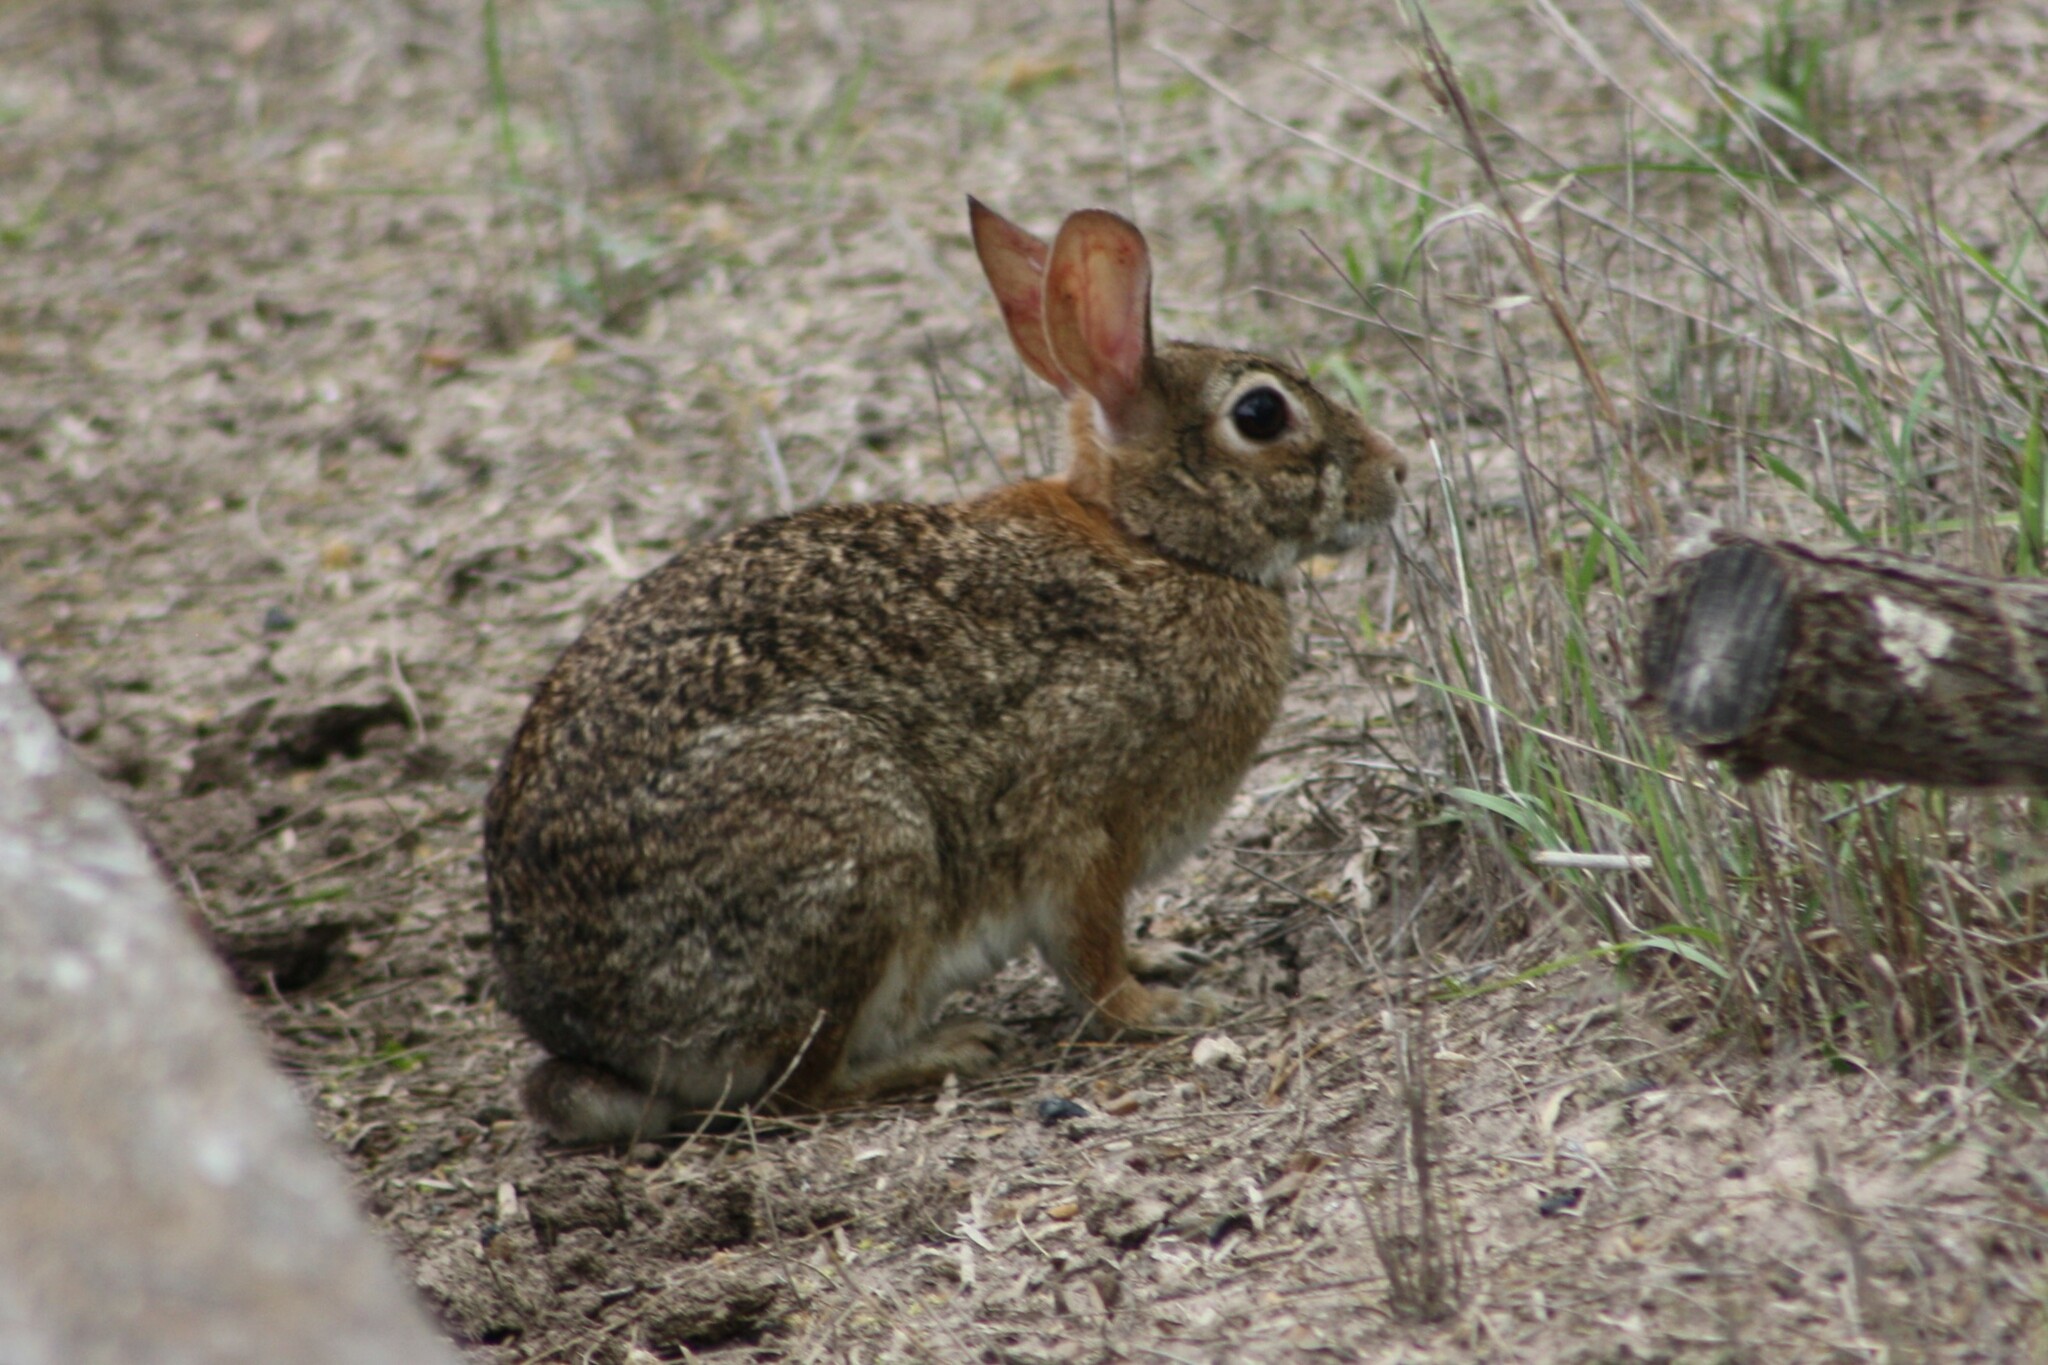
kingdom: Animalia
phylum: Chordata
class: Mammalia
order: Lagomorpha
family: Leporidae
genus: Sylvilagus
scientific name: Sylvilagus floridanus
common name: Eastern cottontail
